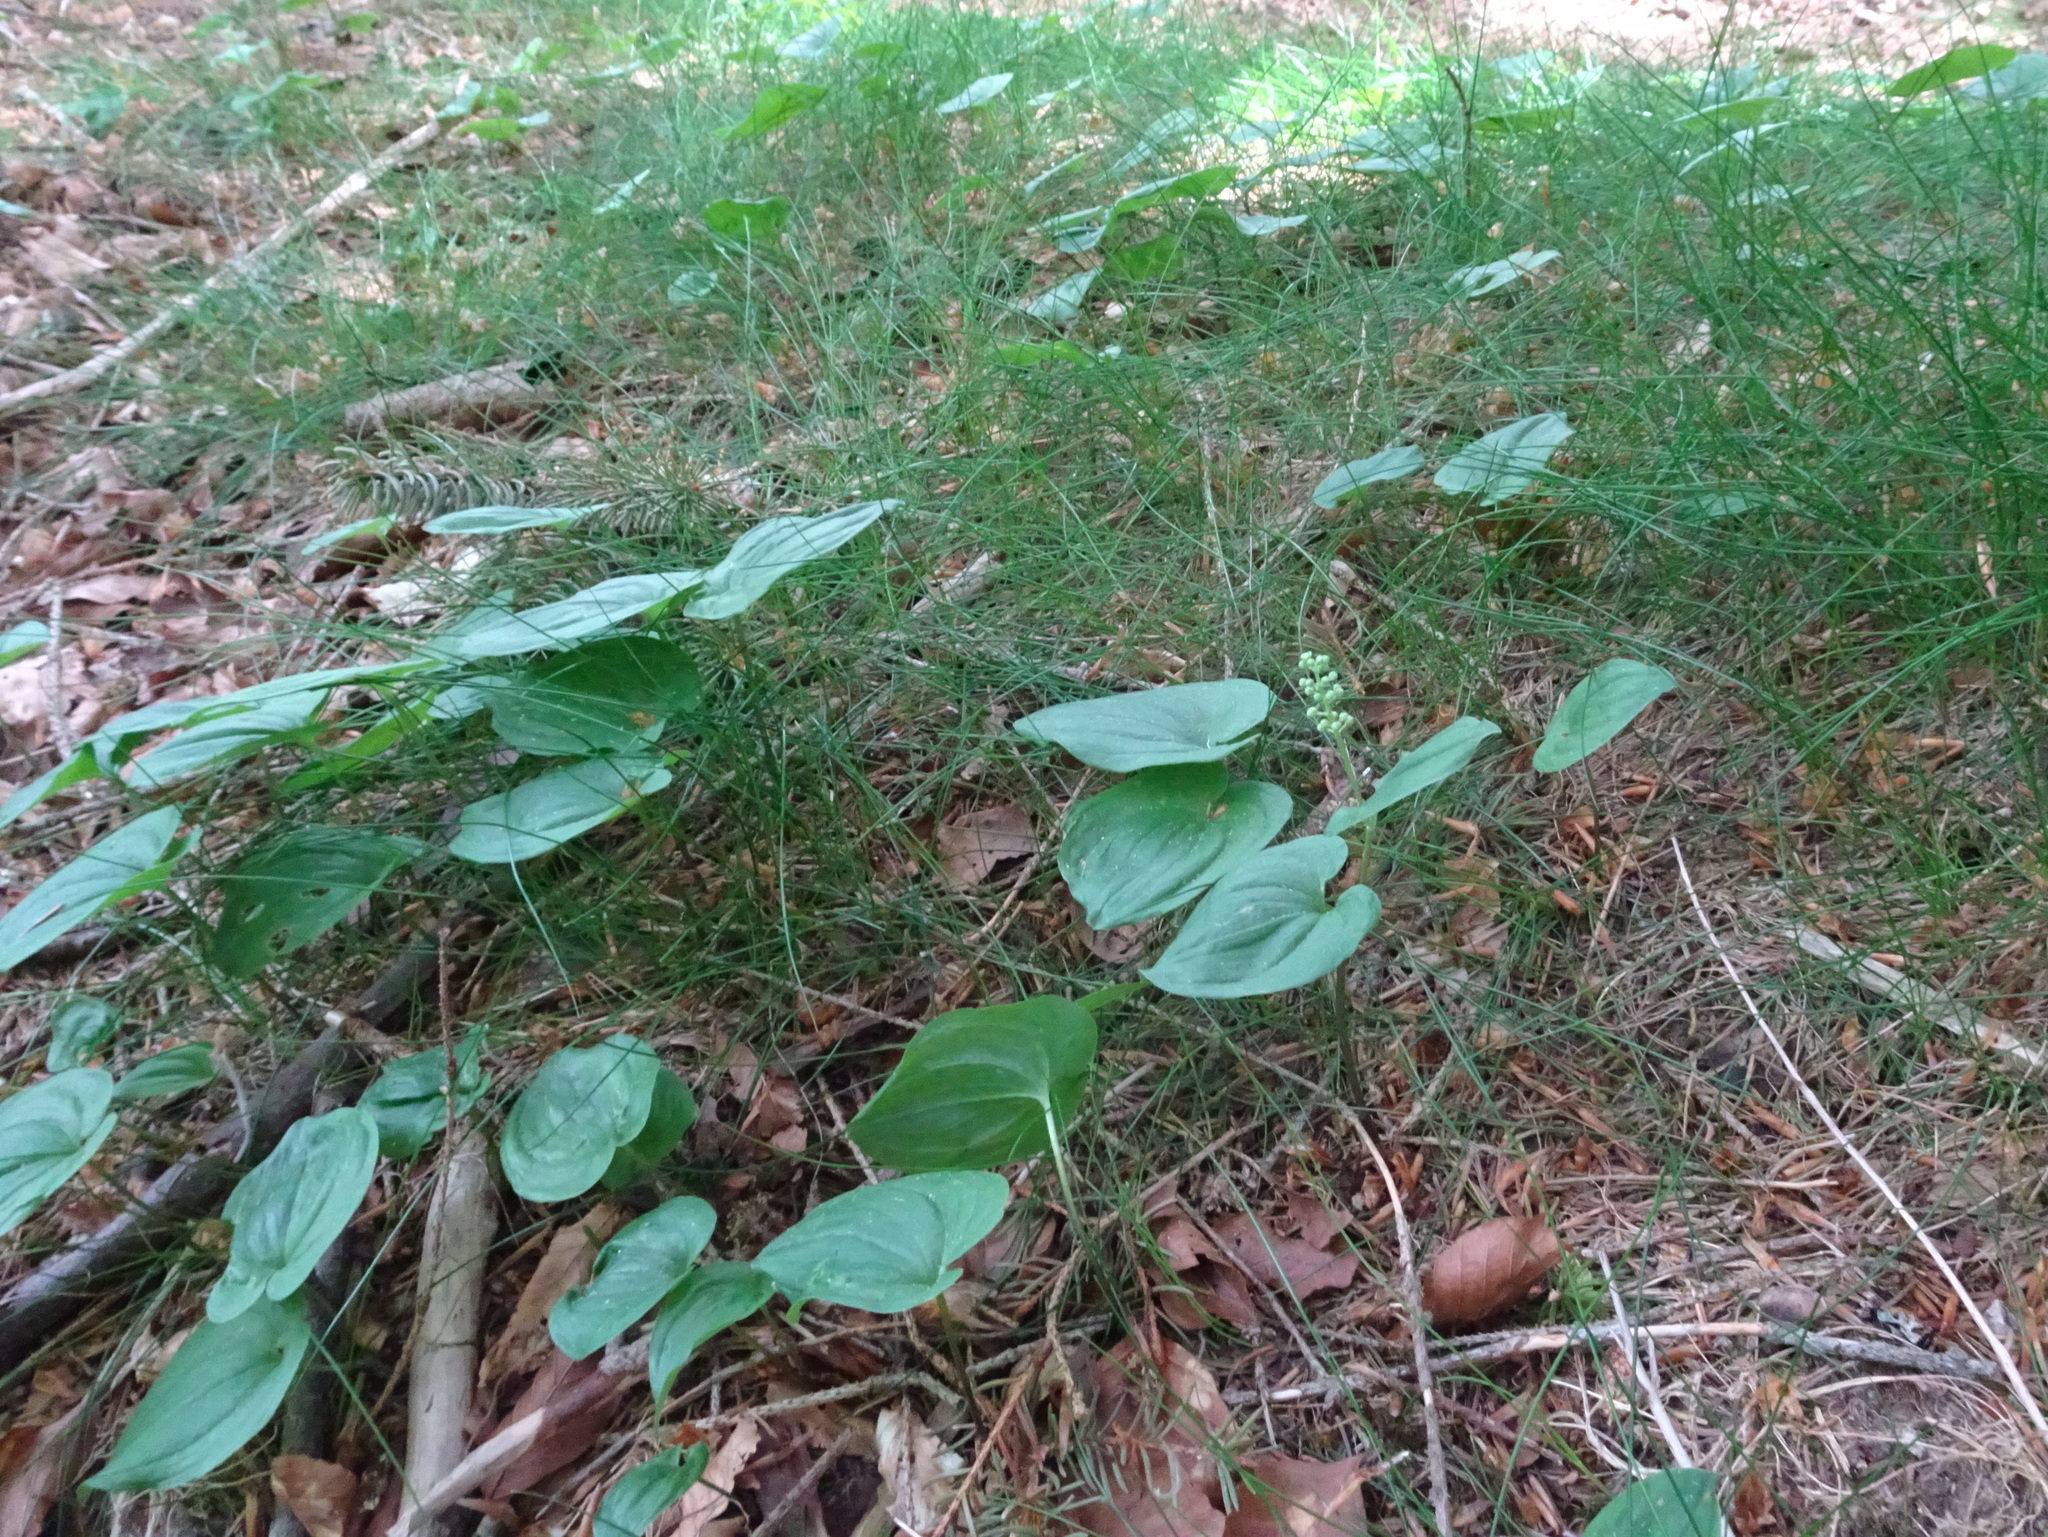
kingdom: Plantae
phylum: Tracheophyta
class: Liliopsida
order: Asparagales
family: Asparagaceae
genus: Maianthemum
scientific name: Maianthemum bifolium
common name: May lily
